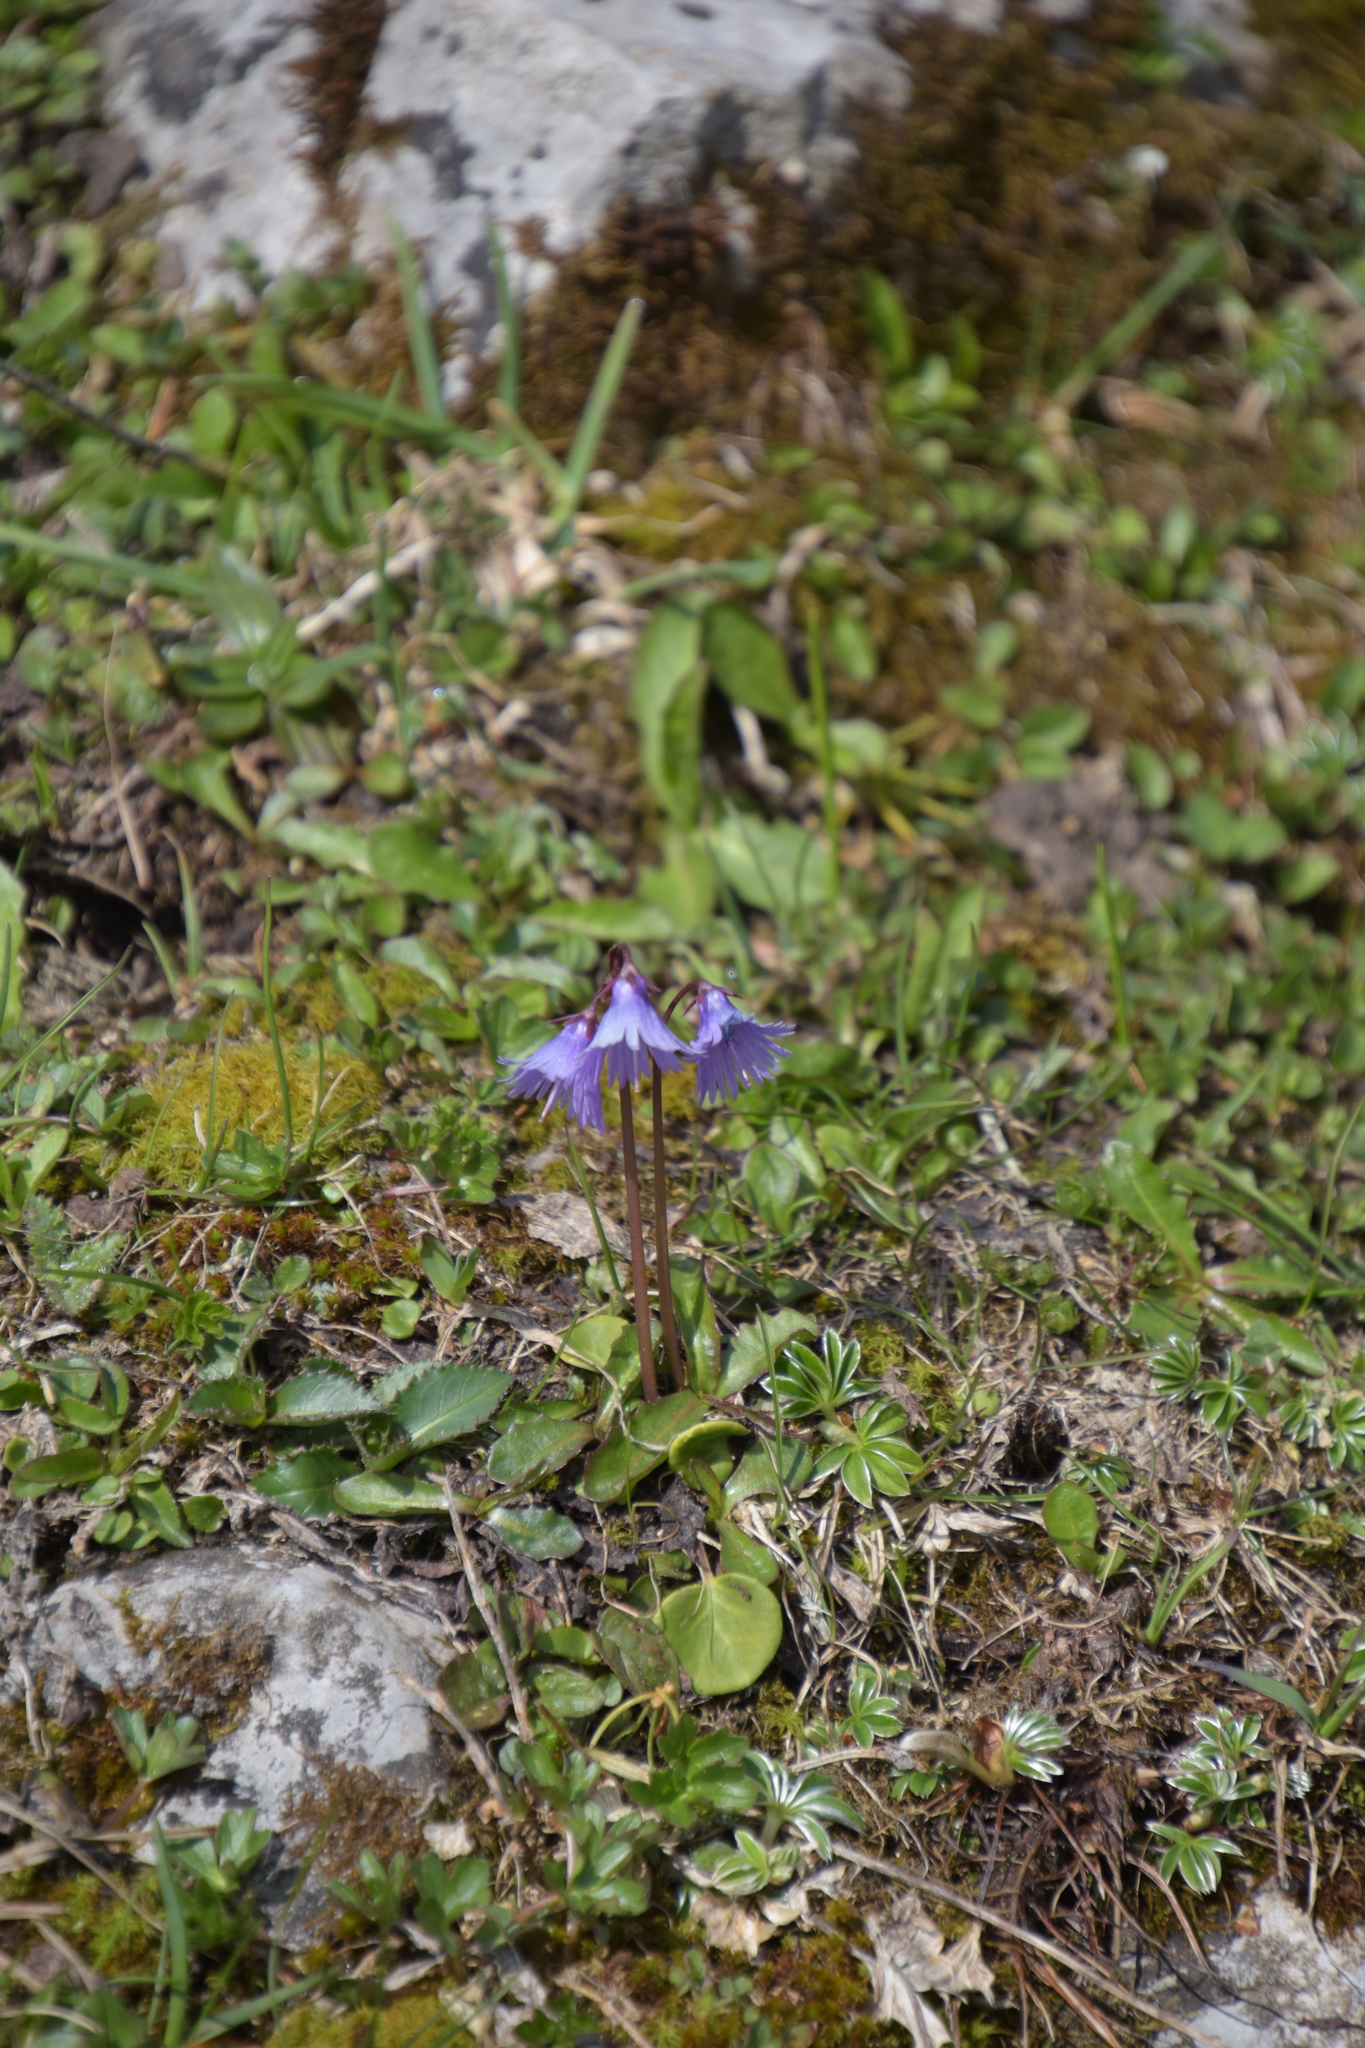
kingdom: Plantae
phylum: Tracheophyta
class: Magnoliopsida
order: Ericales
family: Primulaceae
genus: Soldanella
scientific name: Soldanella alpina
